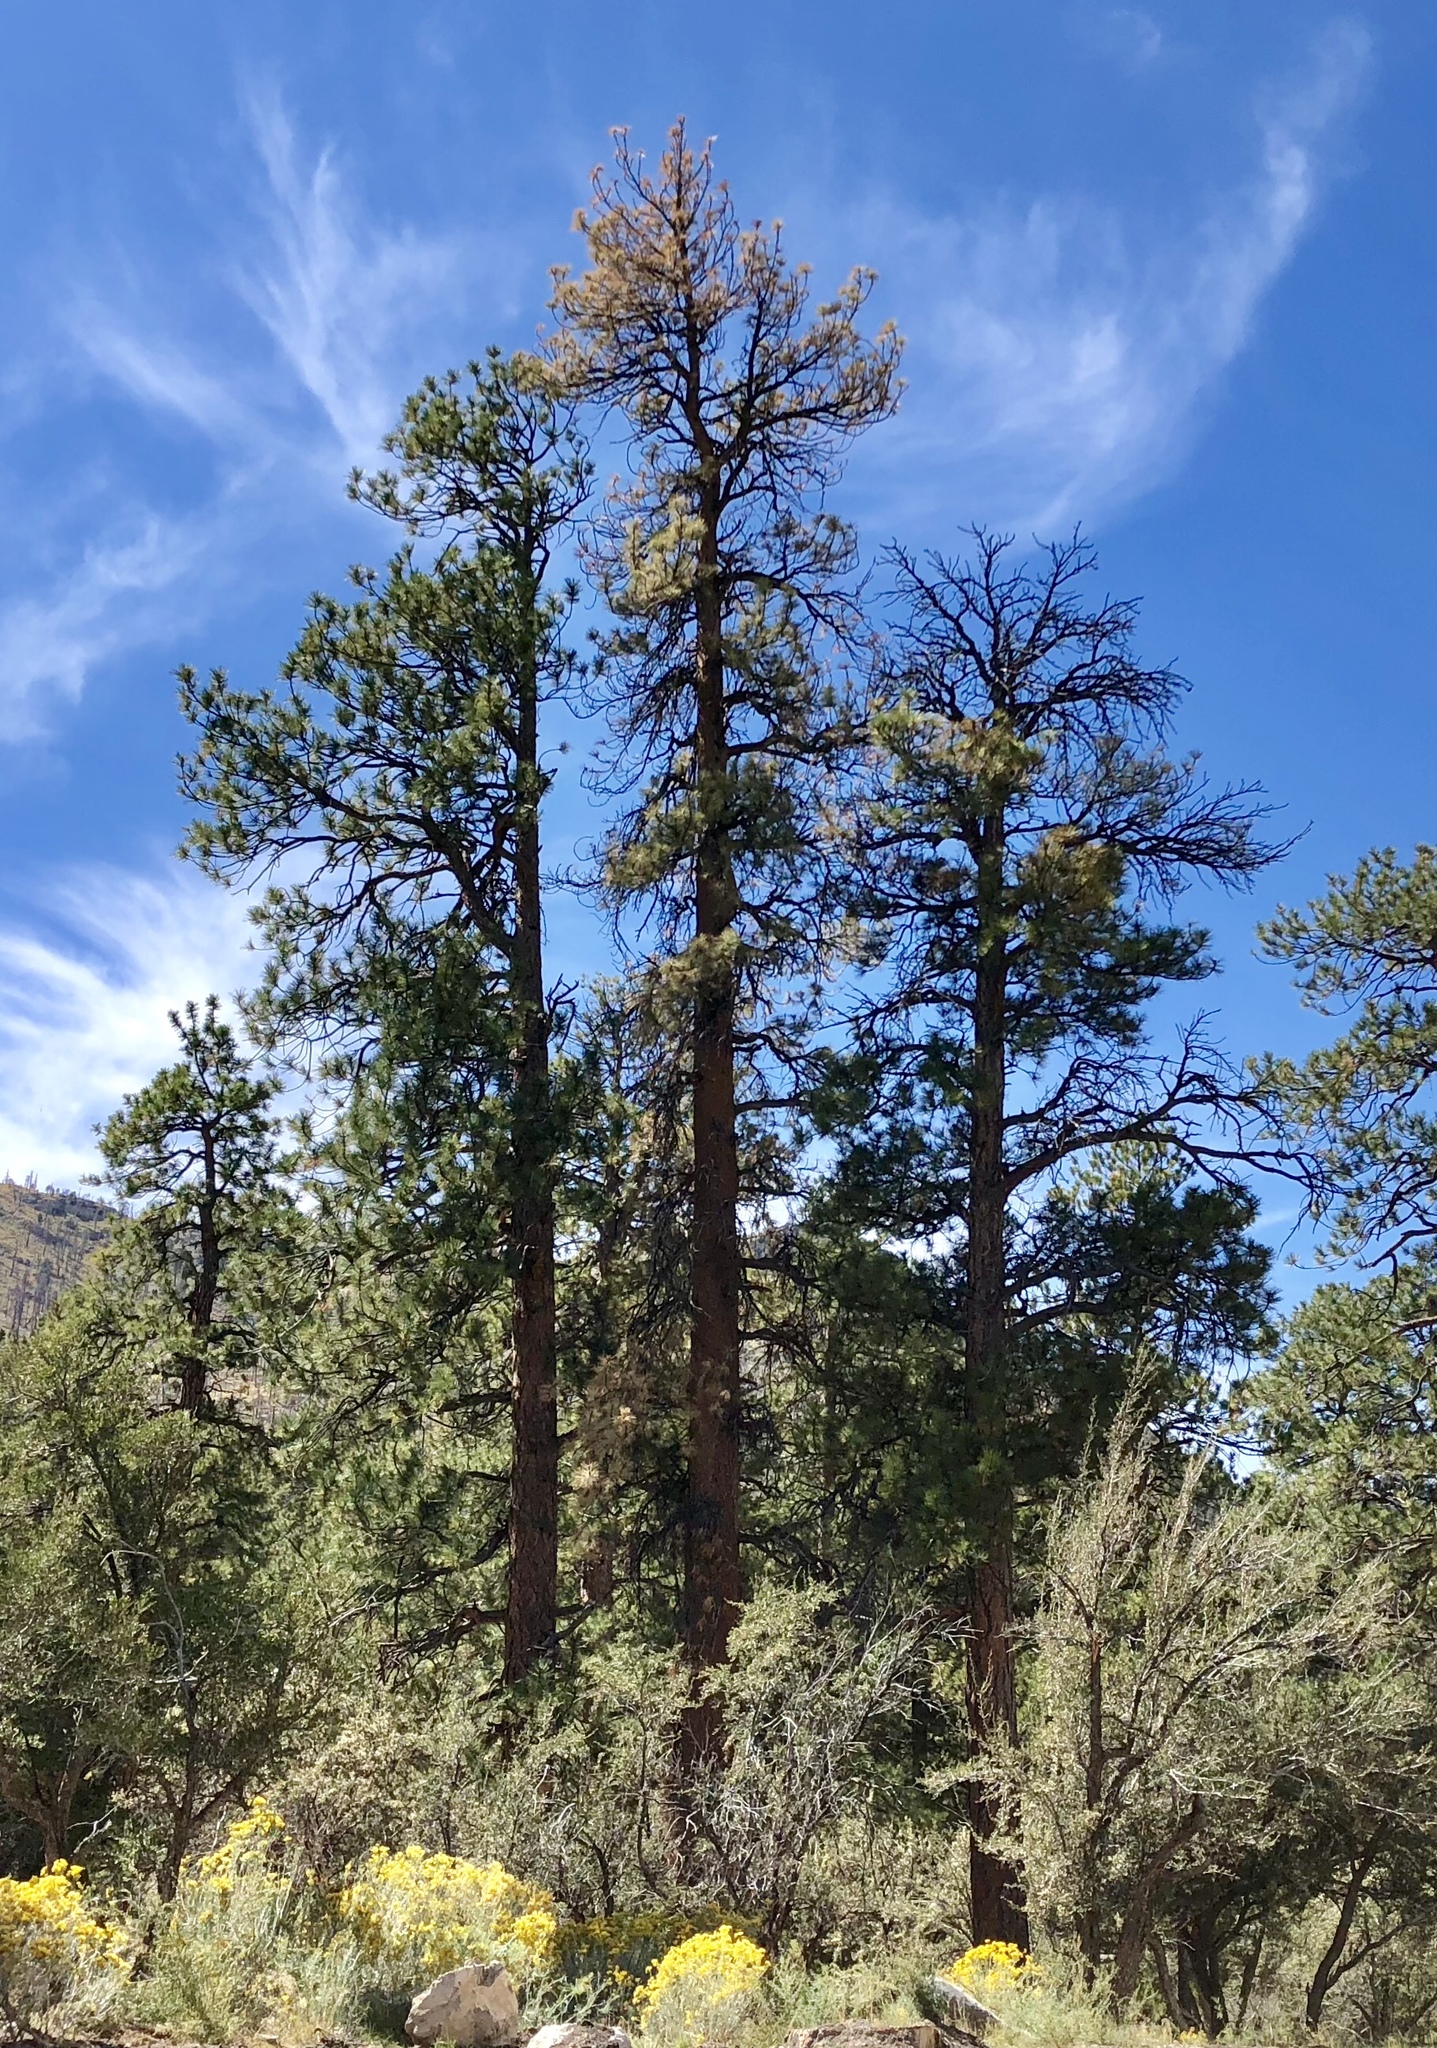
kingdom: Plantae
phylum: Tracheophyta
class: Pinopsida
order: Pinales
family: Pinaceae
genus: Pinus
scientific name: Pinus ponderosa
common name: Western yellow-pine
